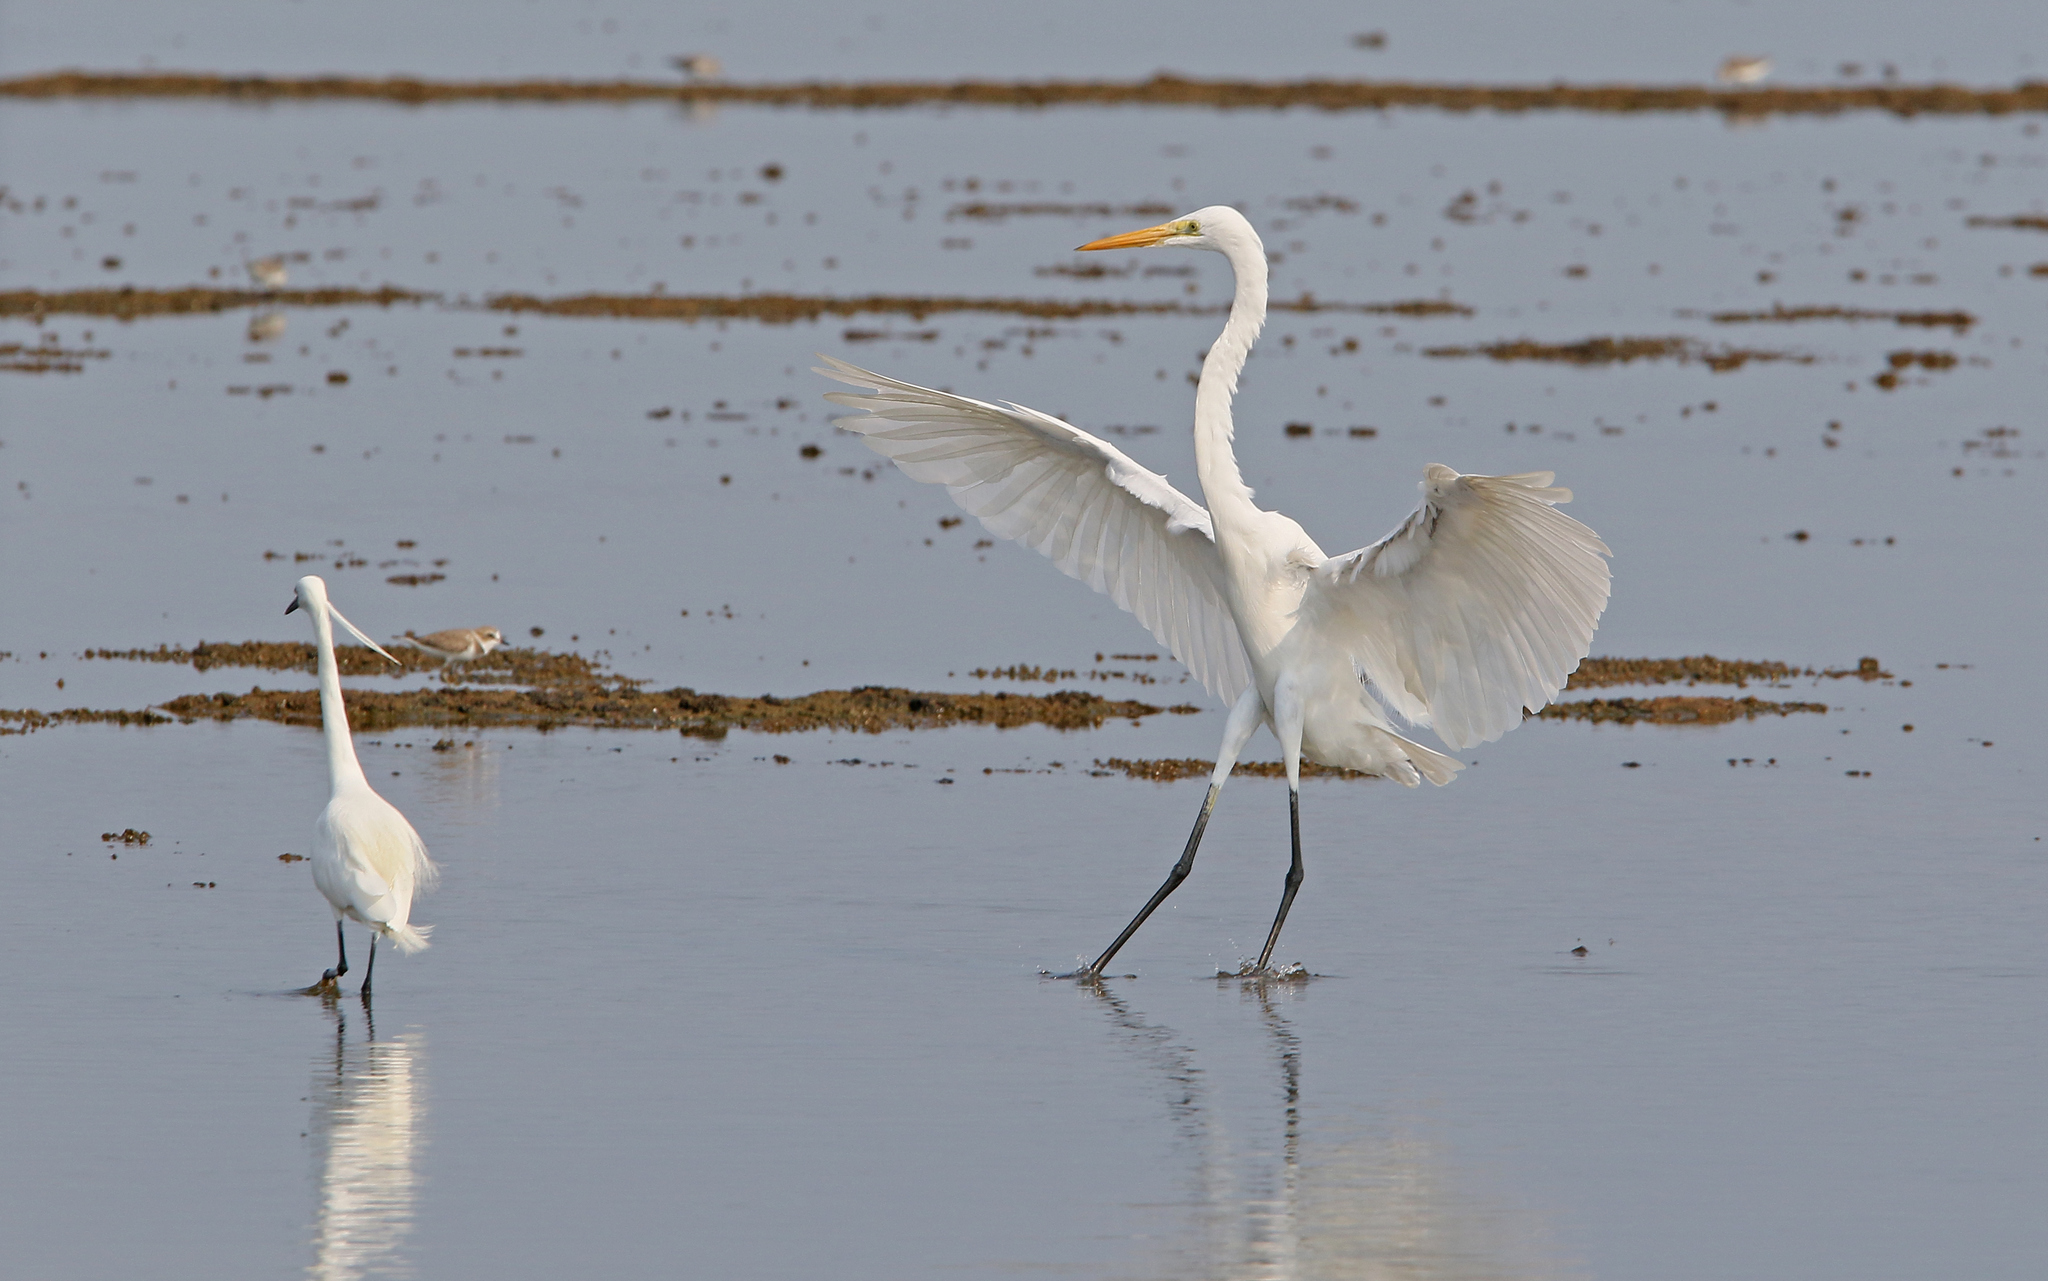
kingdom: Animalia
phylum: Chordata
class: Aves
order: Pelecaniformes
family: Ardeidae
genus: Ardea
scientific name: Ardea alba
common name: Great egret
